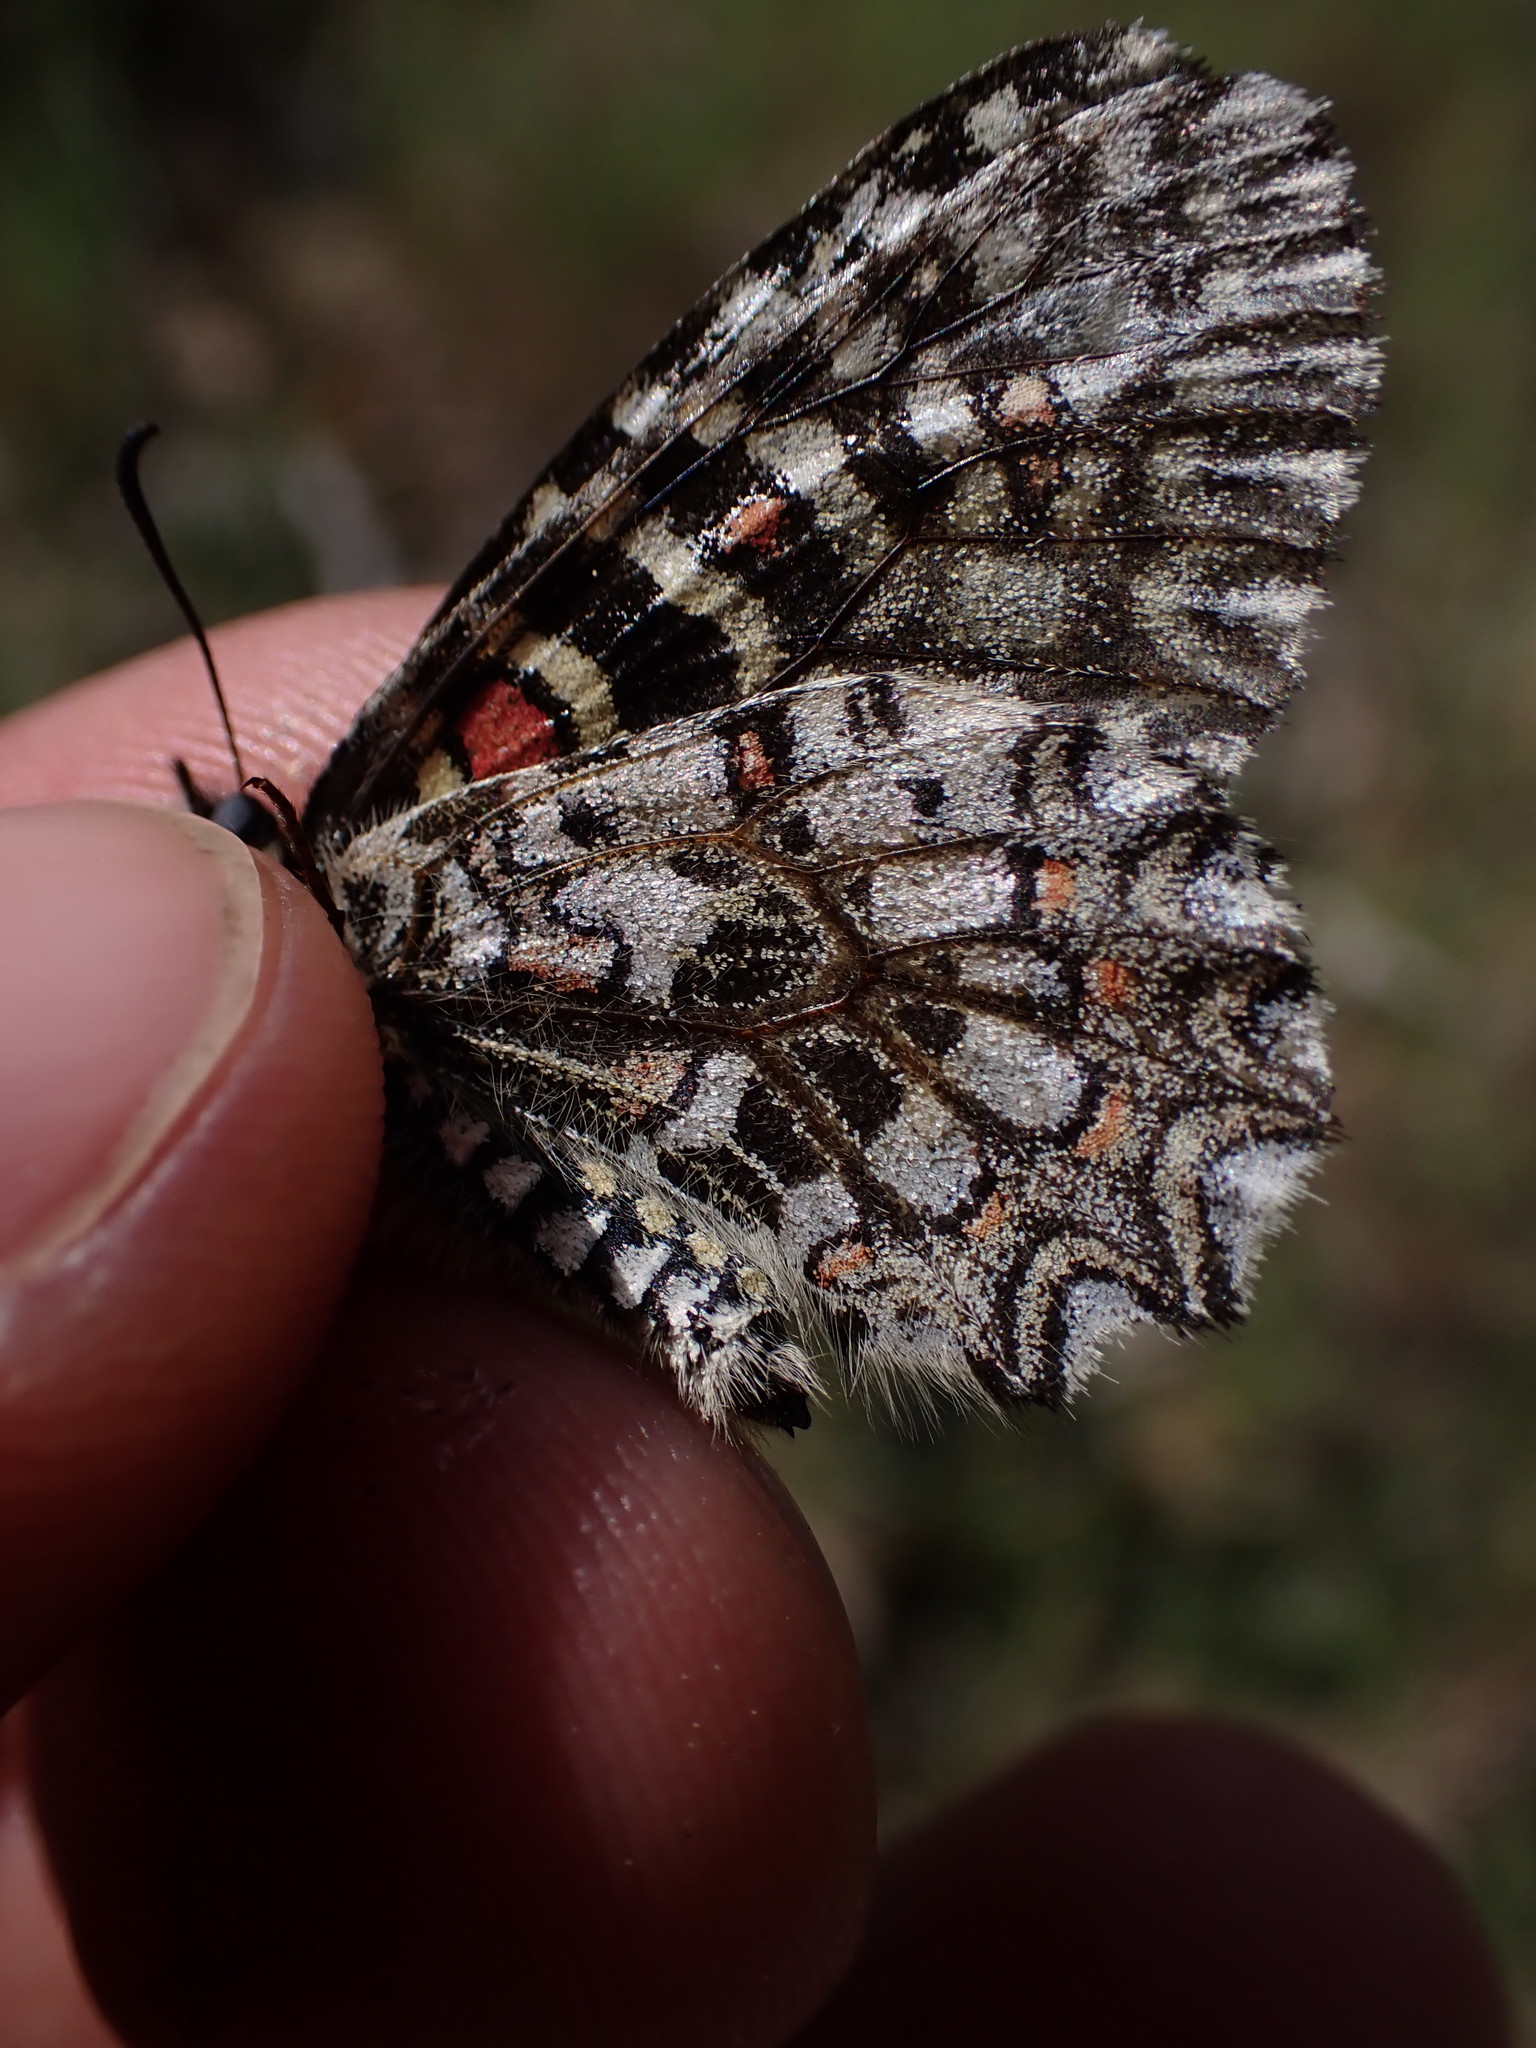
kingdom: Animalia
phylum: Arthropoda
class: Insecta
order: Lepidoptera
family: Papilionidae
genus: Zerynthia
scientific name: Zerynthia rumina
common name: Spanish festoon
